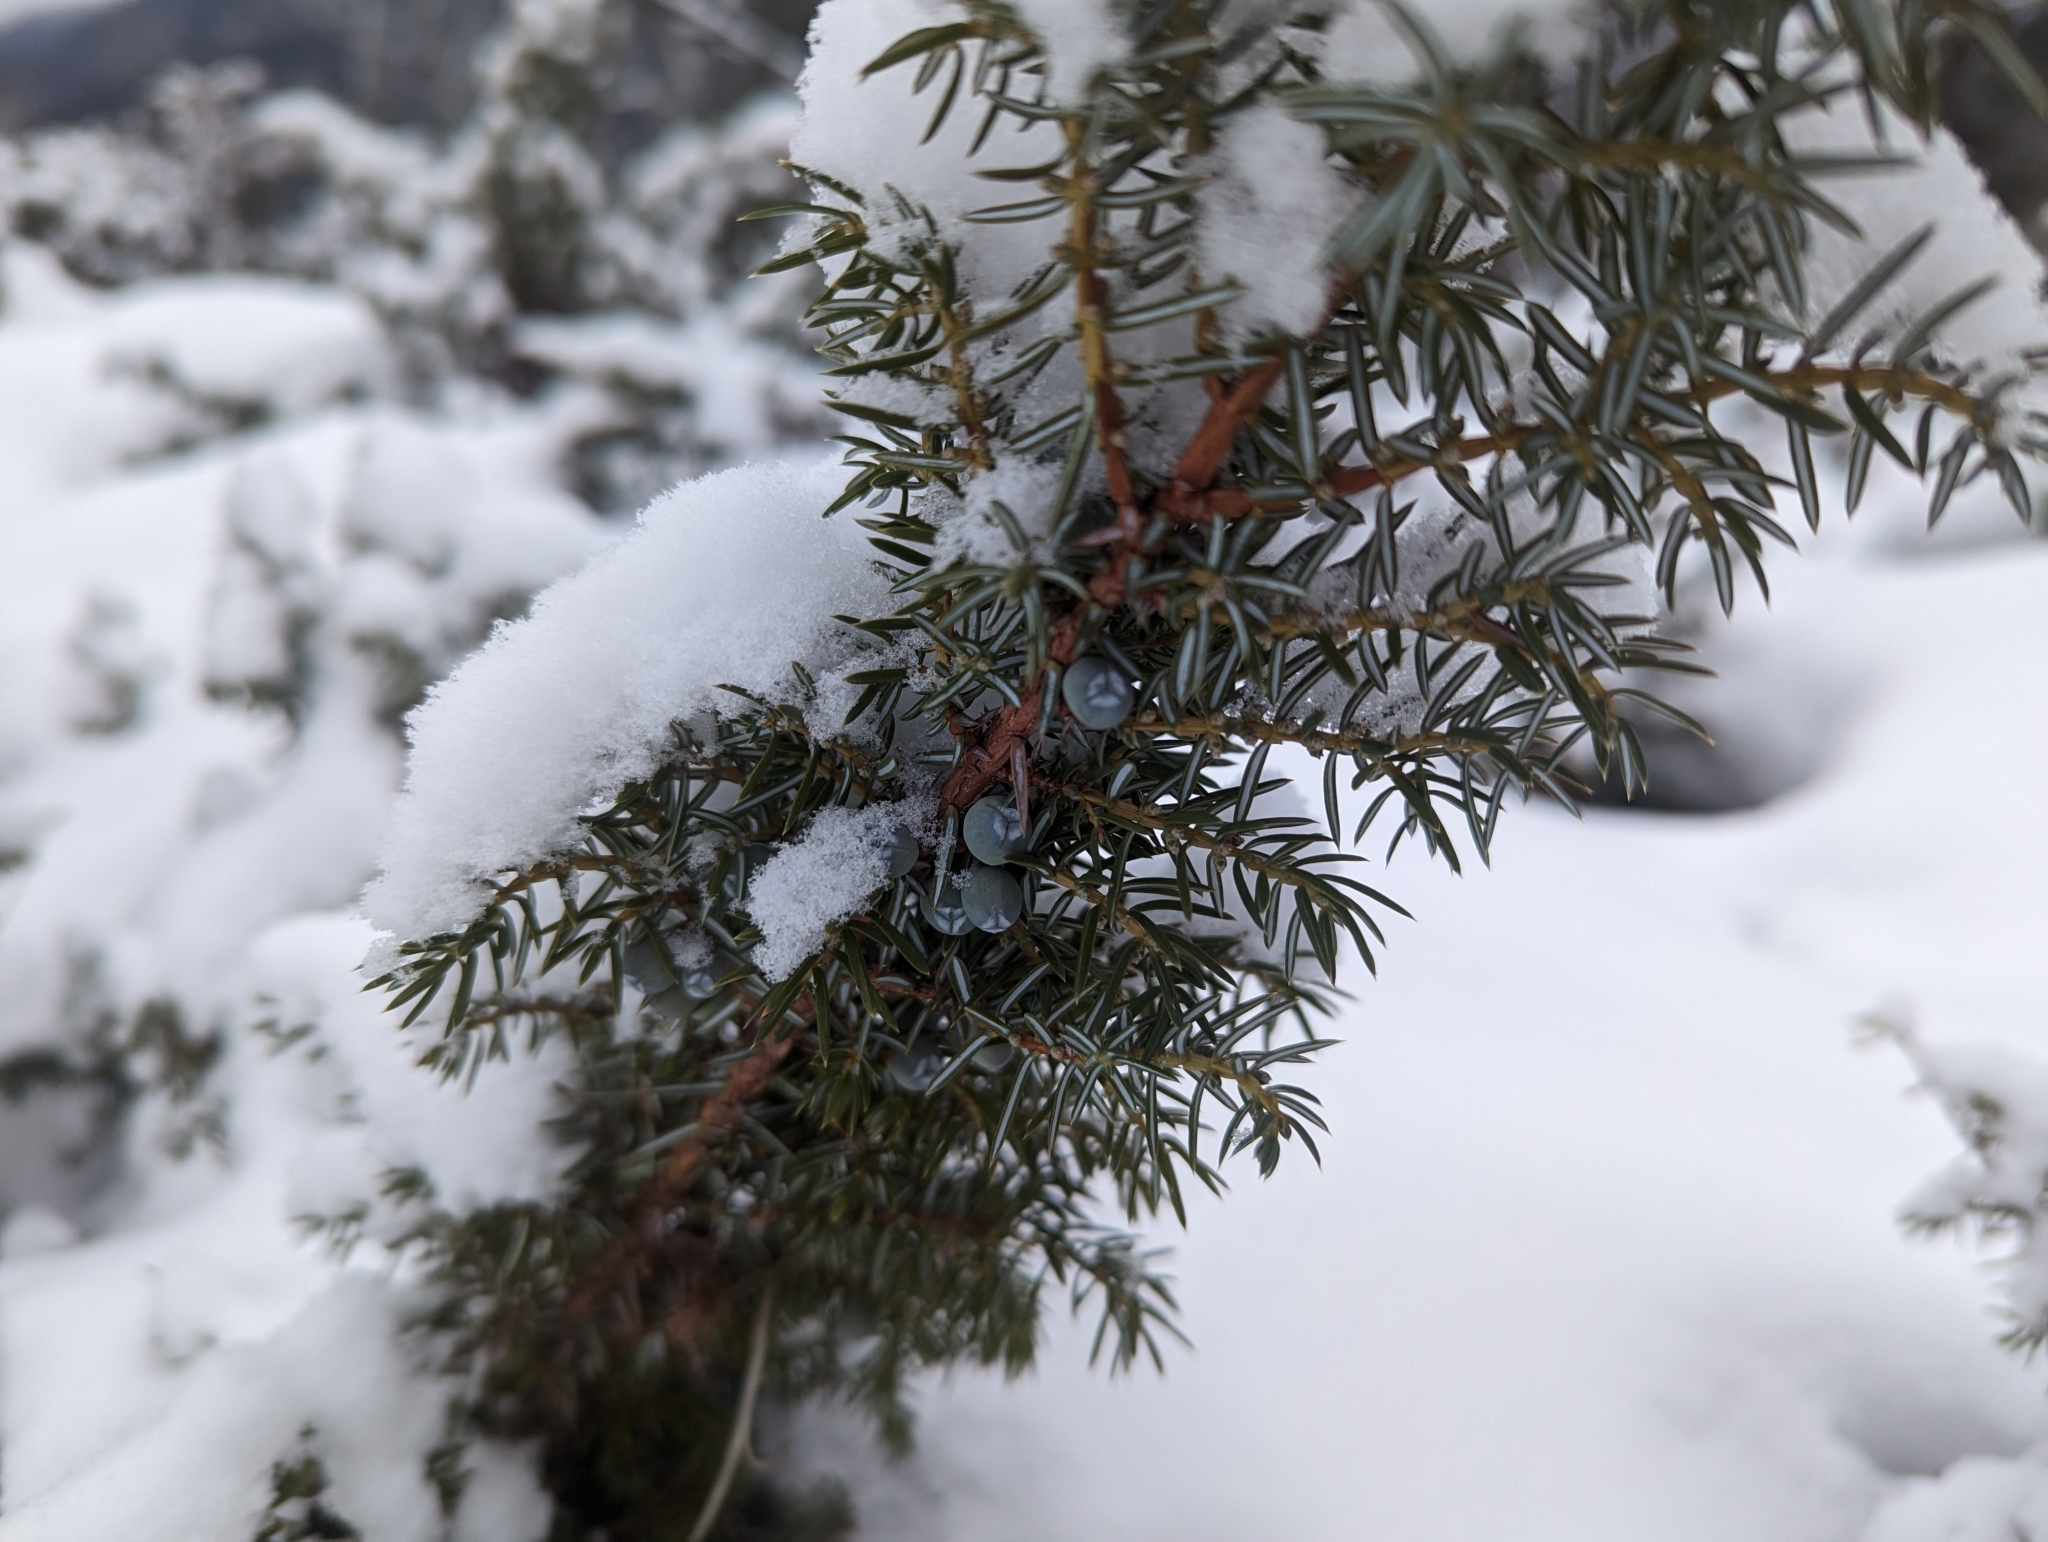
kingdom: Plantae
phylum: Tracheophyta
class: Pinopsida
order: Pinales
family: Cupressaceae
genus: Juniperus
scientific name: Juniperus communis
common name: Common juniper
